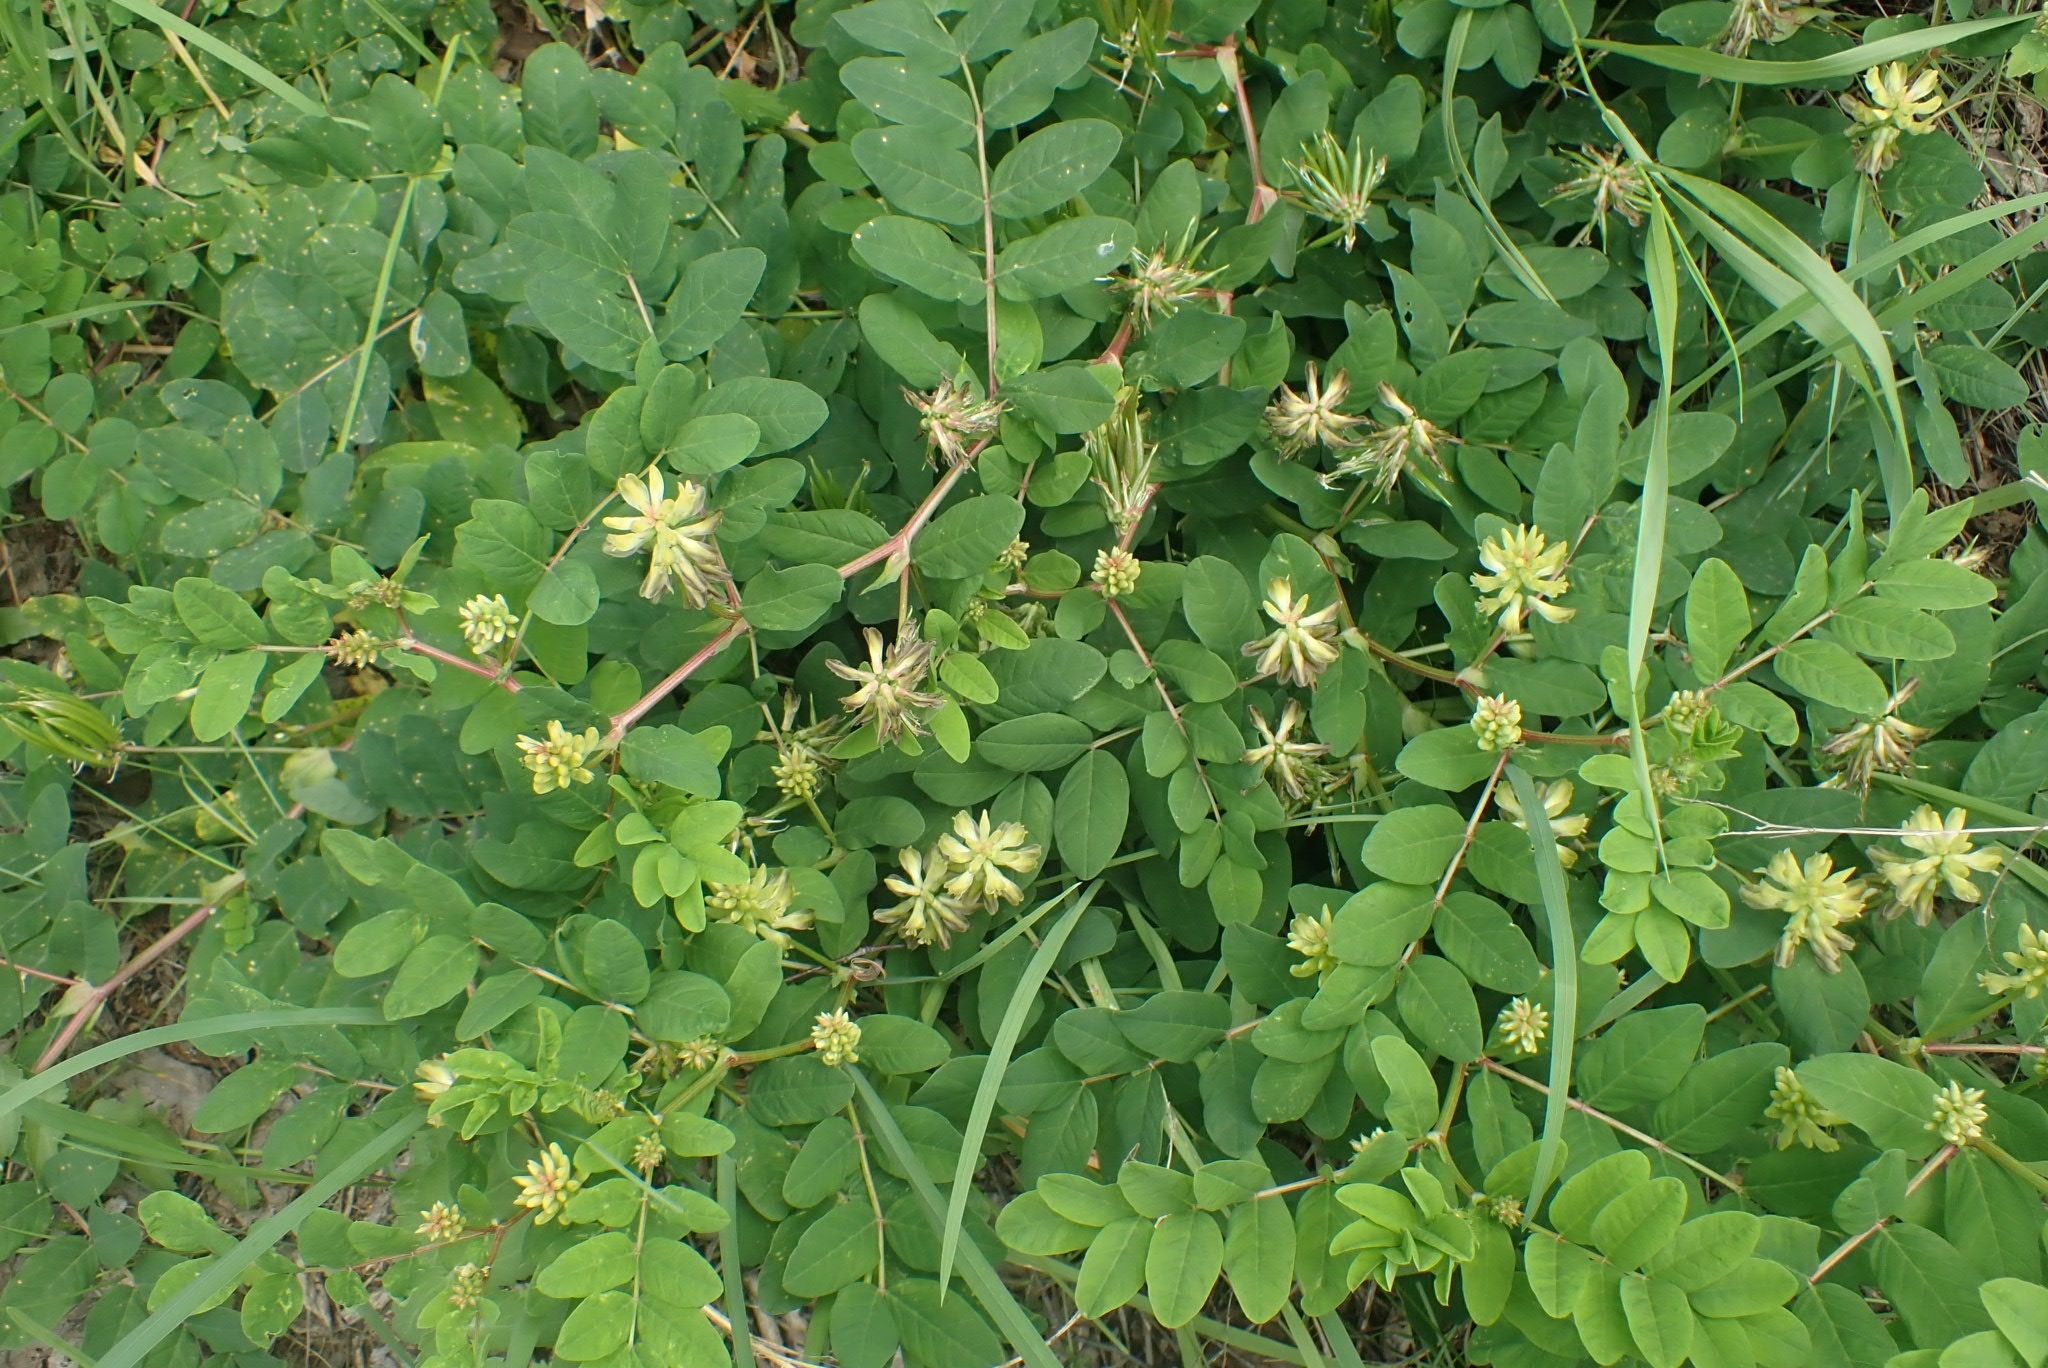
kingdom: Plantae
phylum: Tracheophyta
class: Magnoliopsida
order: Fabales
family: Fabaceae
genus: Astragalus
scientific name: Astragalus glycyphyllos
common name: Wild liquorice
